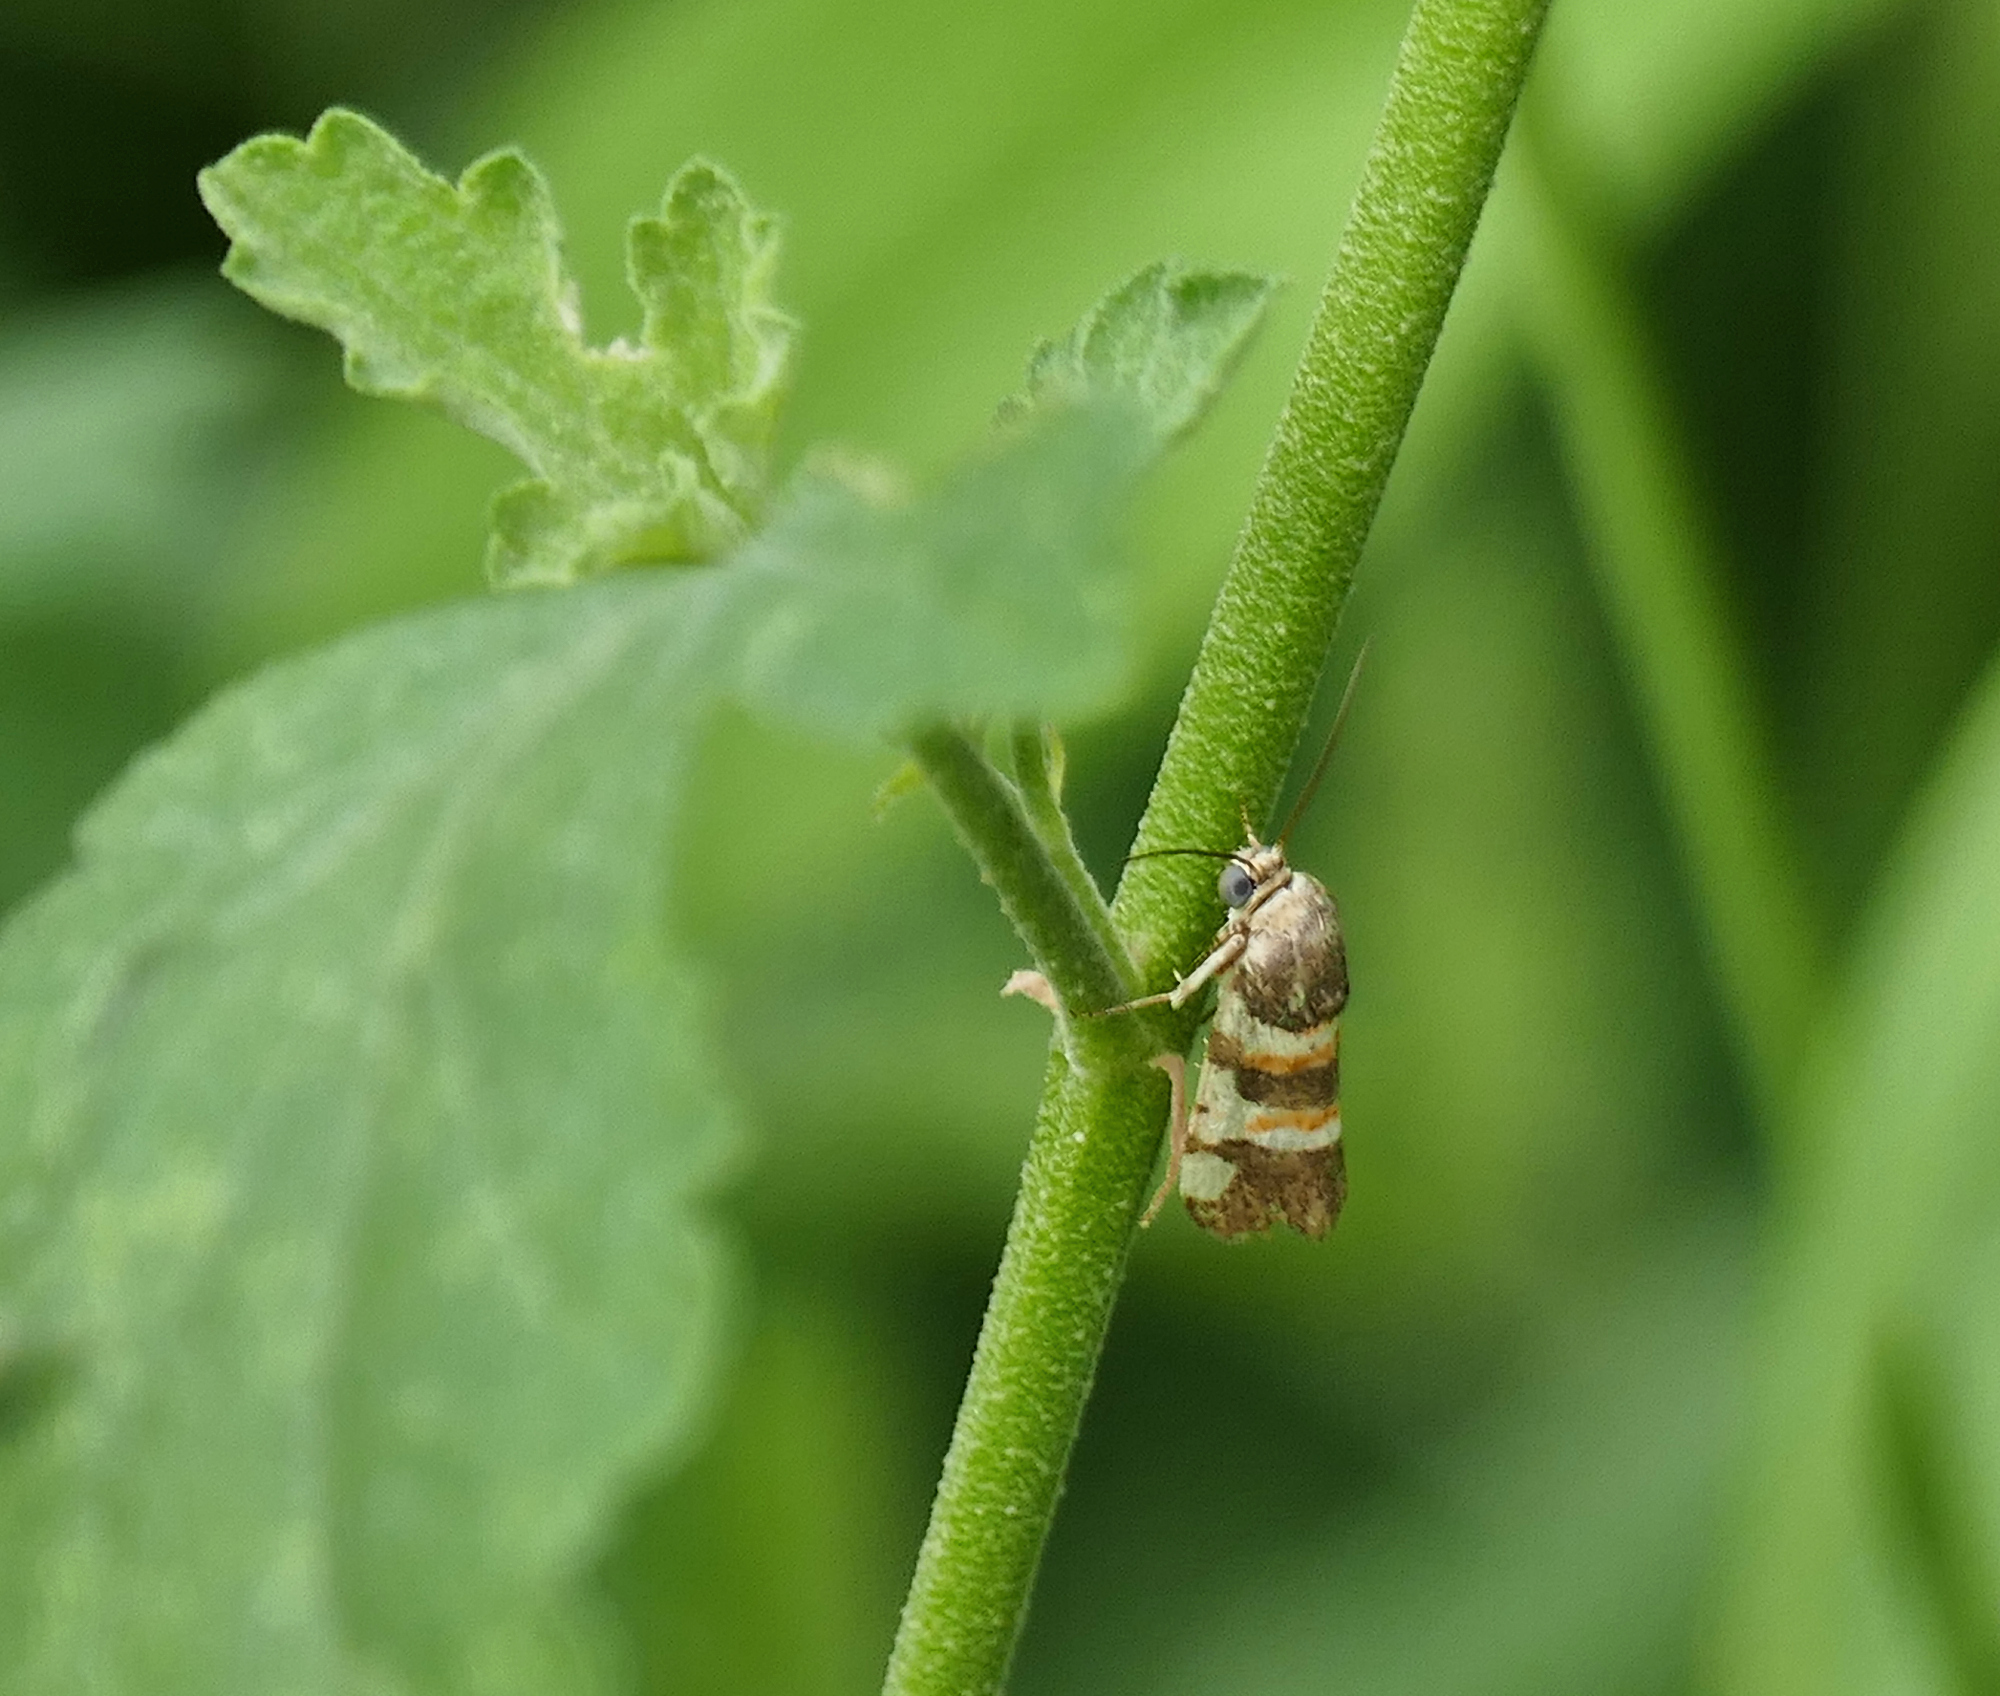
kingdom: Animalia
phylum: Arthropoda
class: Insecta
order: Lepidoptera
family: Noctuidae
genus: Spragueia
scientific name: Spragueia funeralis
